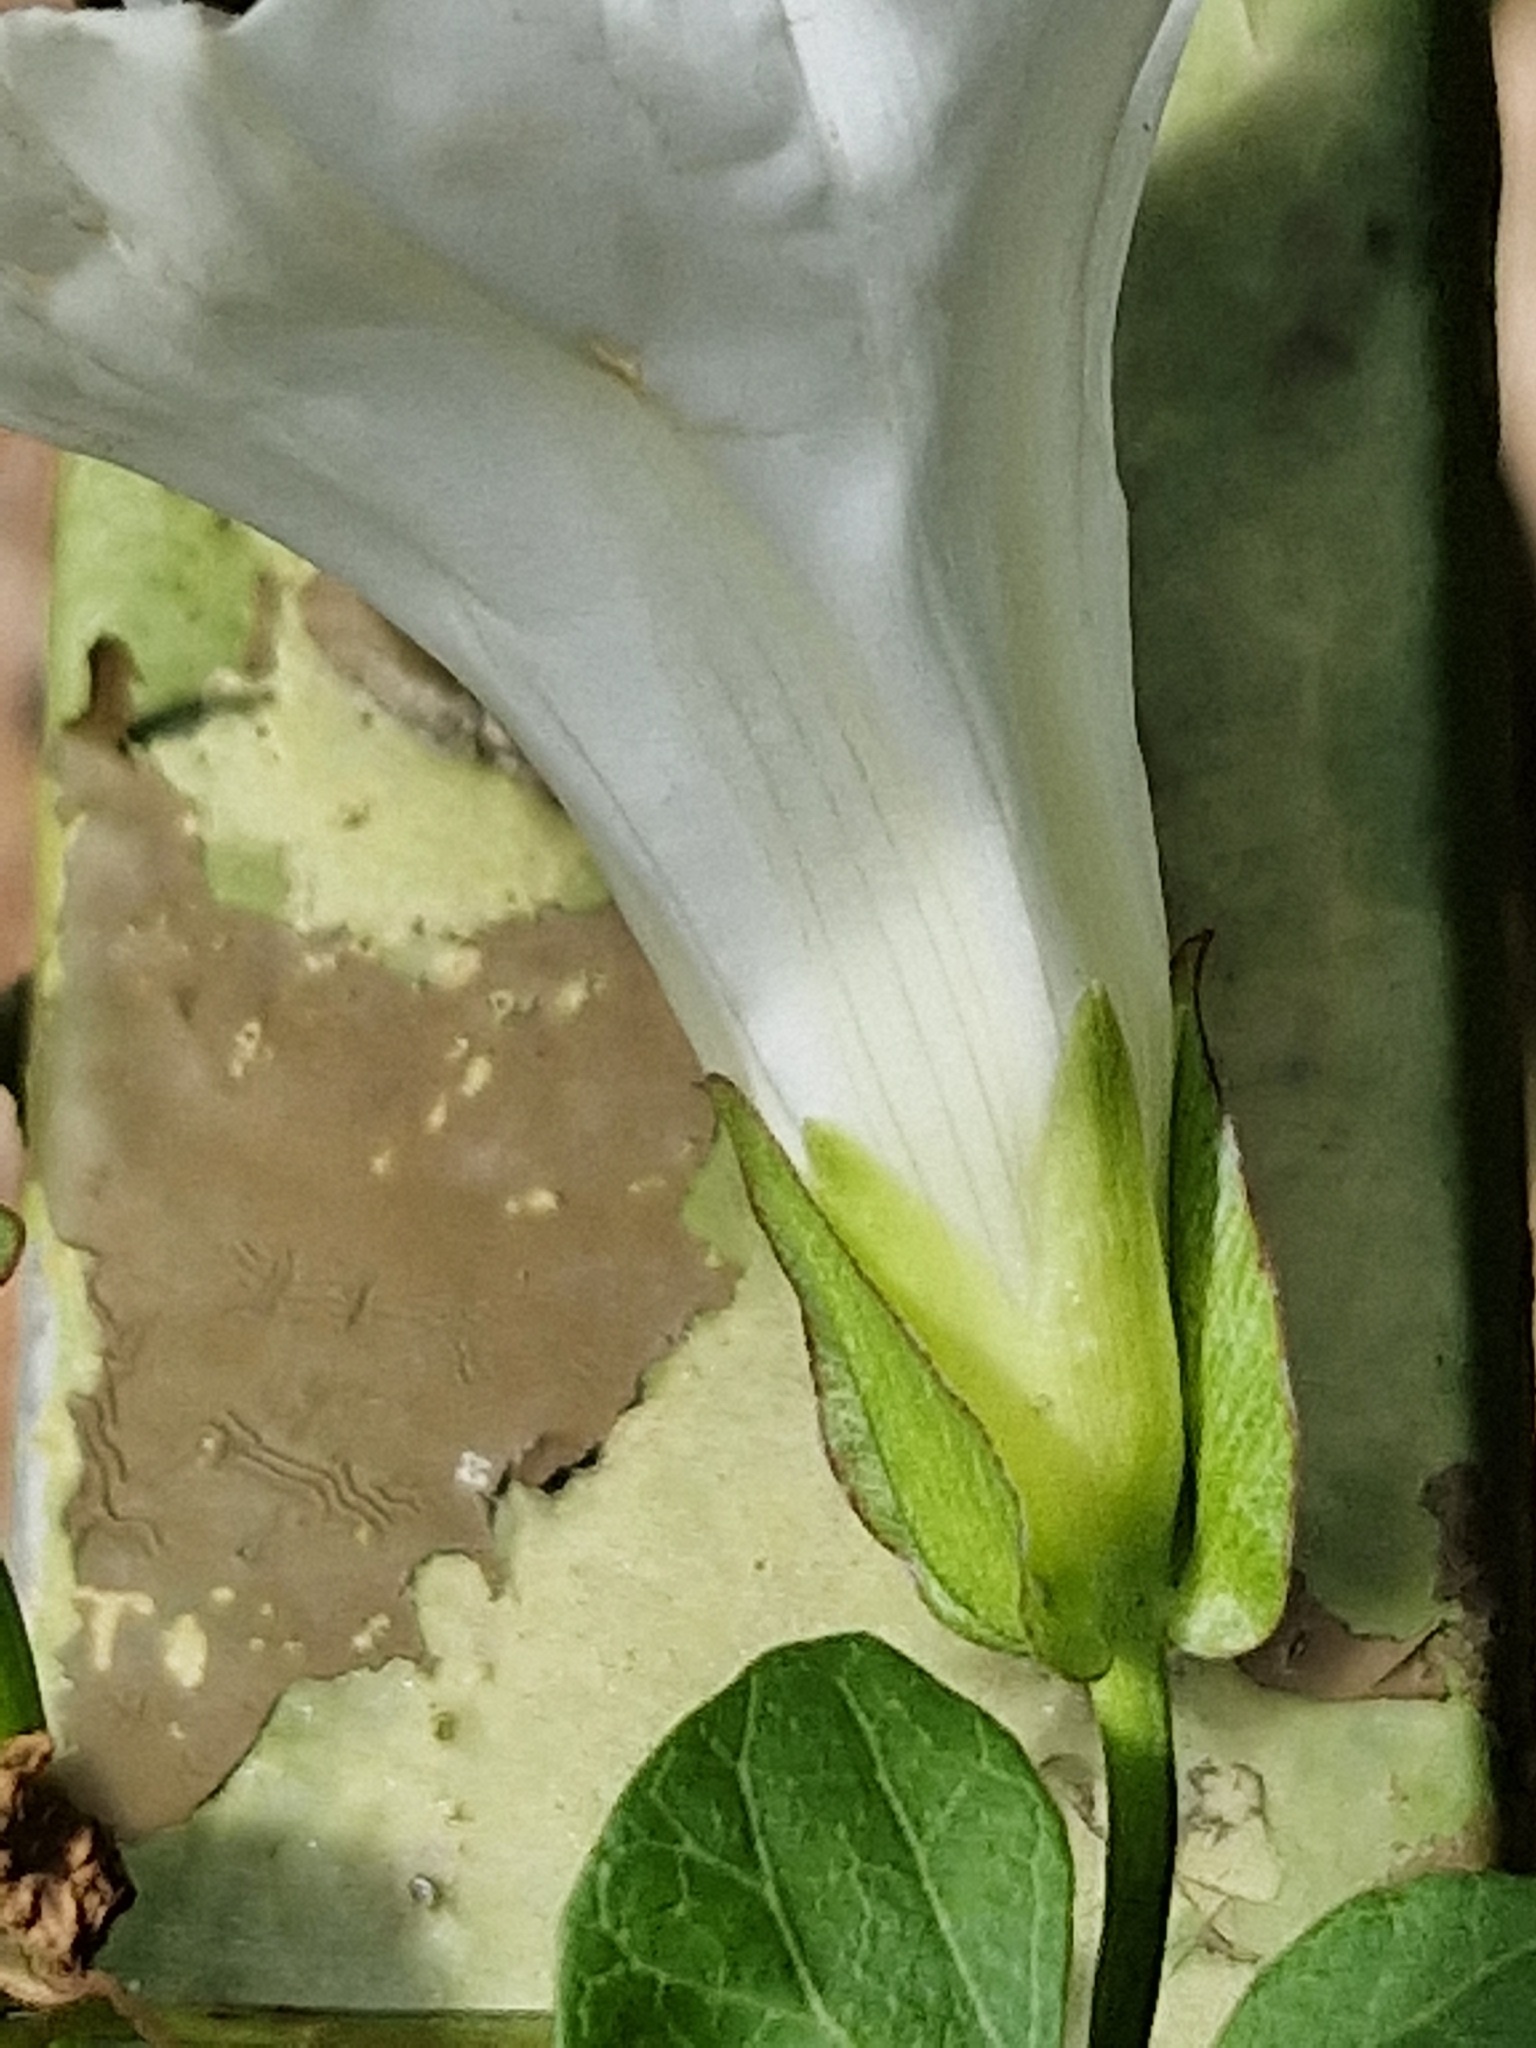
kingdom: Plantae
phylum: Tracheophyta
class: Magnoliopsida
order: Solanales
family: Convolvulaceae
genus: Calystegia
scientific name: Calystegia sepium
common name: Hedge bindweed
